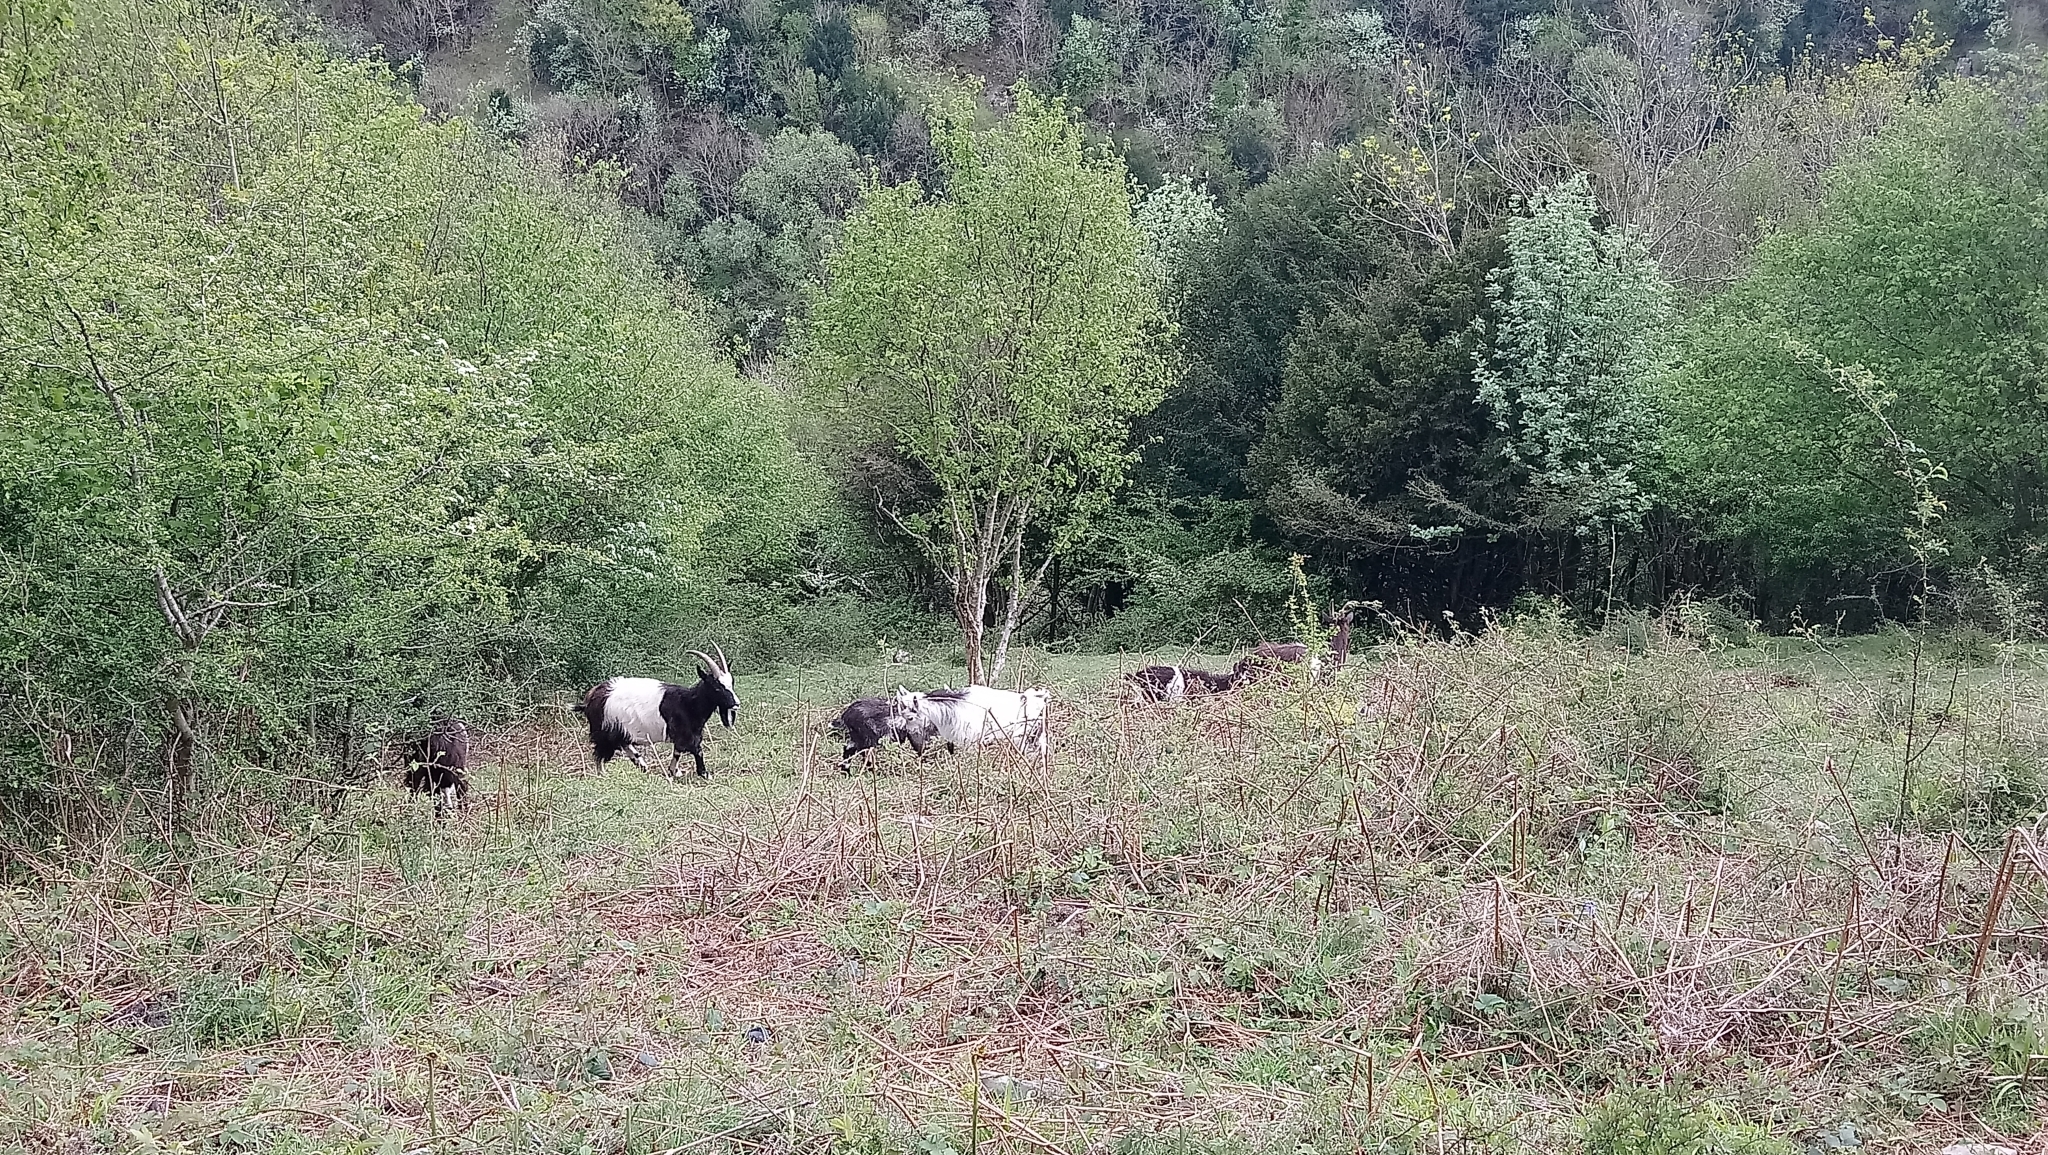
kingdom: Animalia
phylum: Chordata
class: Mammalia
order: Artiodactyla
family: Bovidae
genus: Capra
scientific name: Capra hircus
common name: Domestic goat
